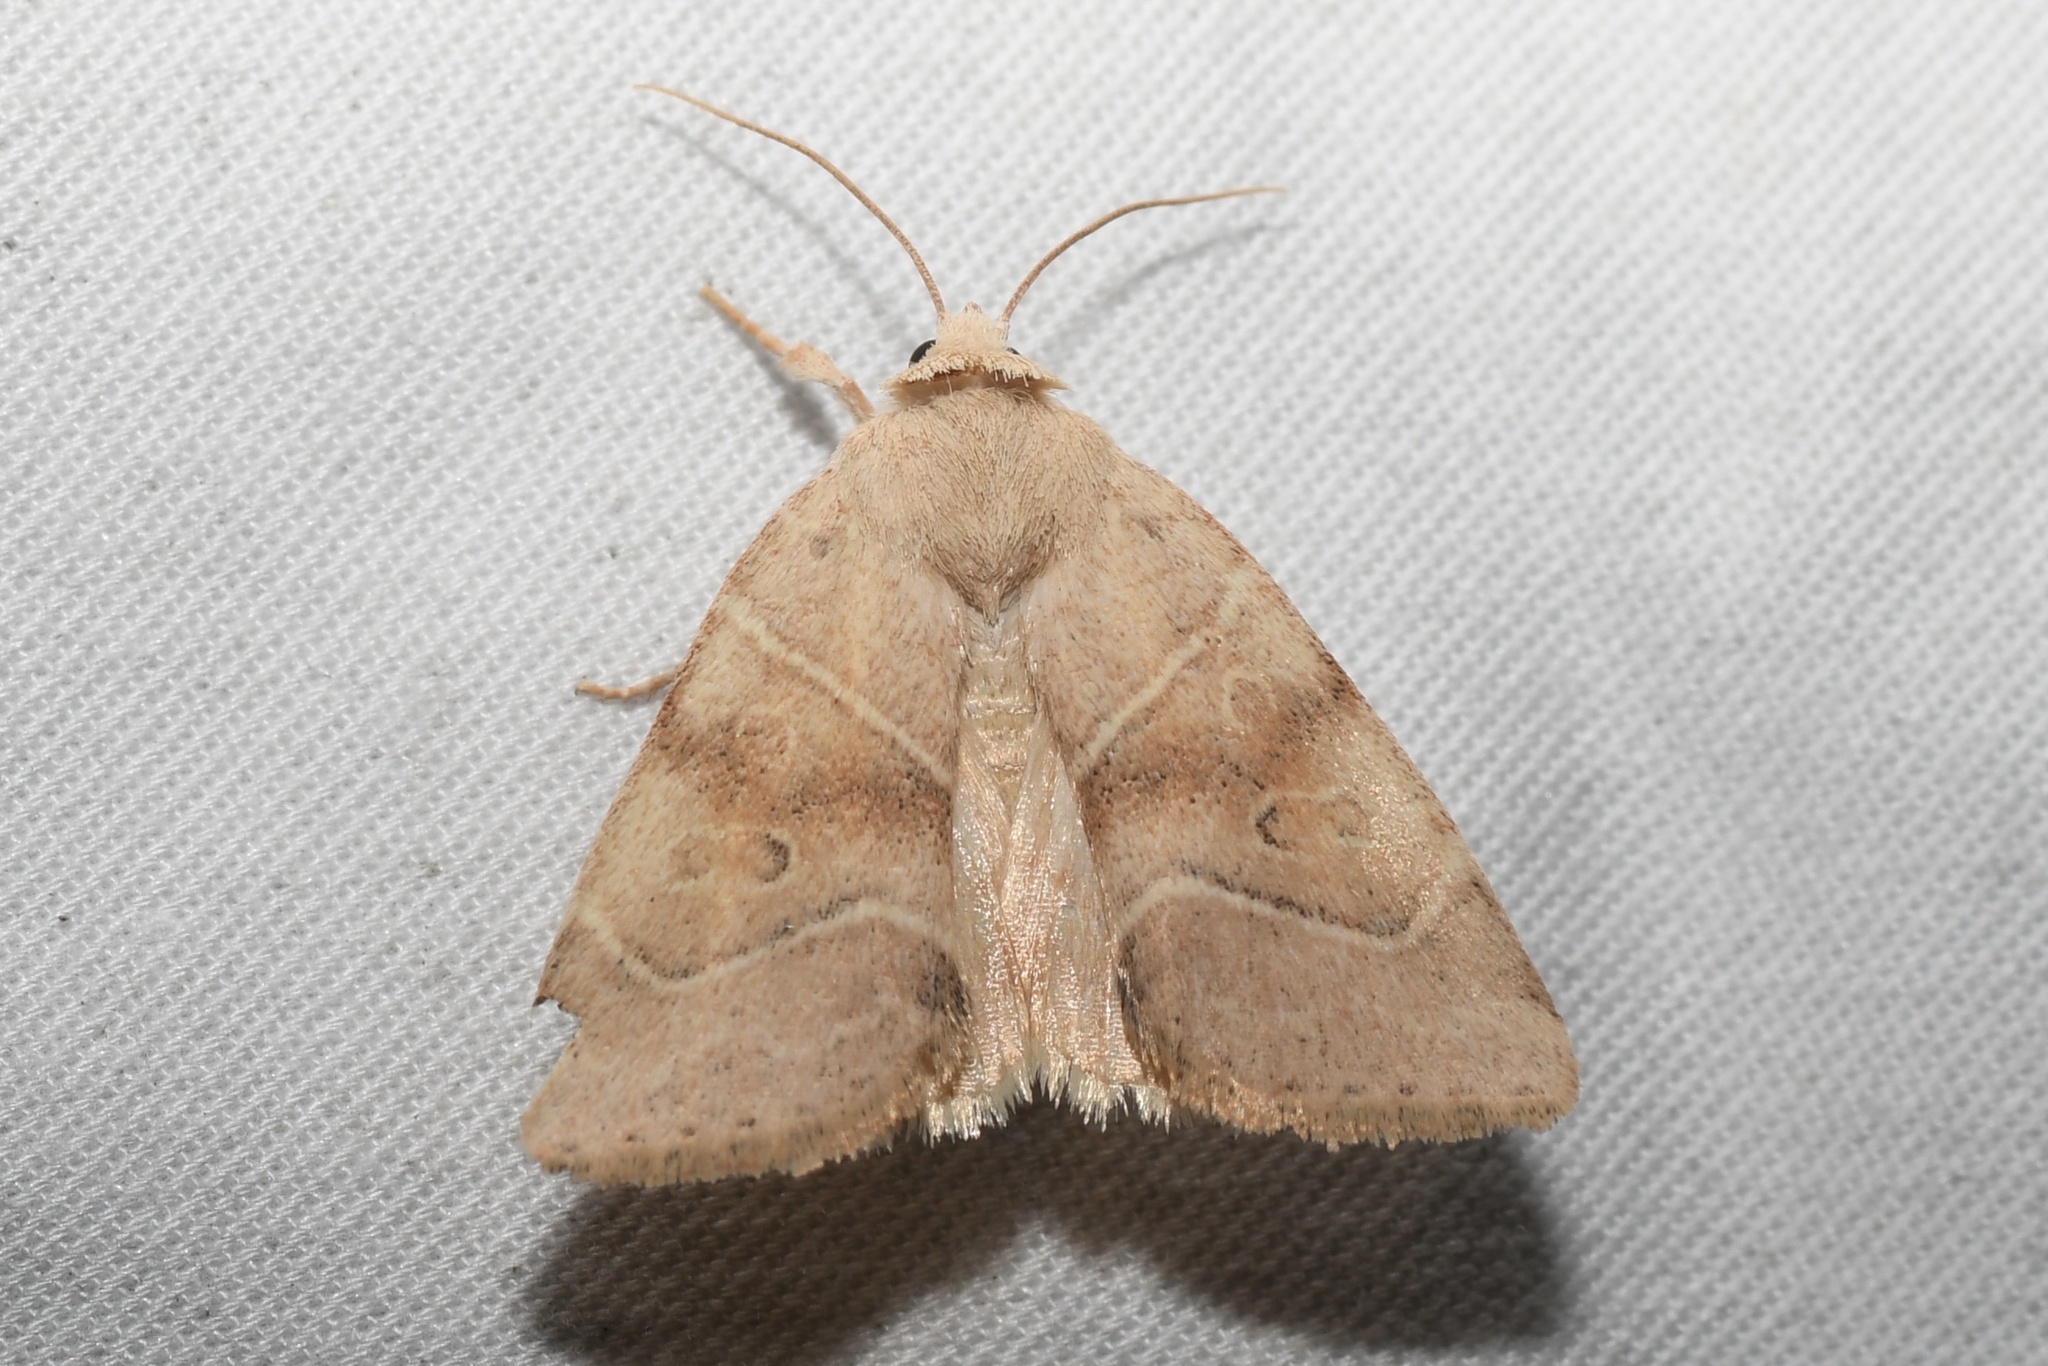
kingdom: Animalia
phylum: Arthropoda
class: Insecta
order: Lepidoptera
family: Noctuidae
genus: Cosmia
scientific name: Cosmia calami
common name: American dun-bar moth
